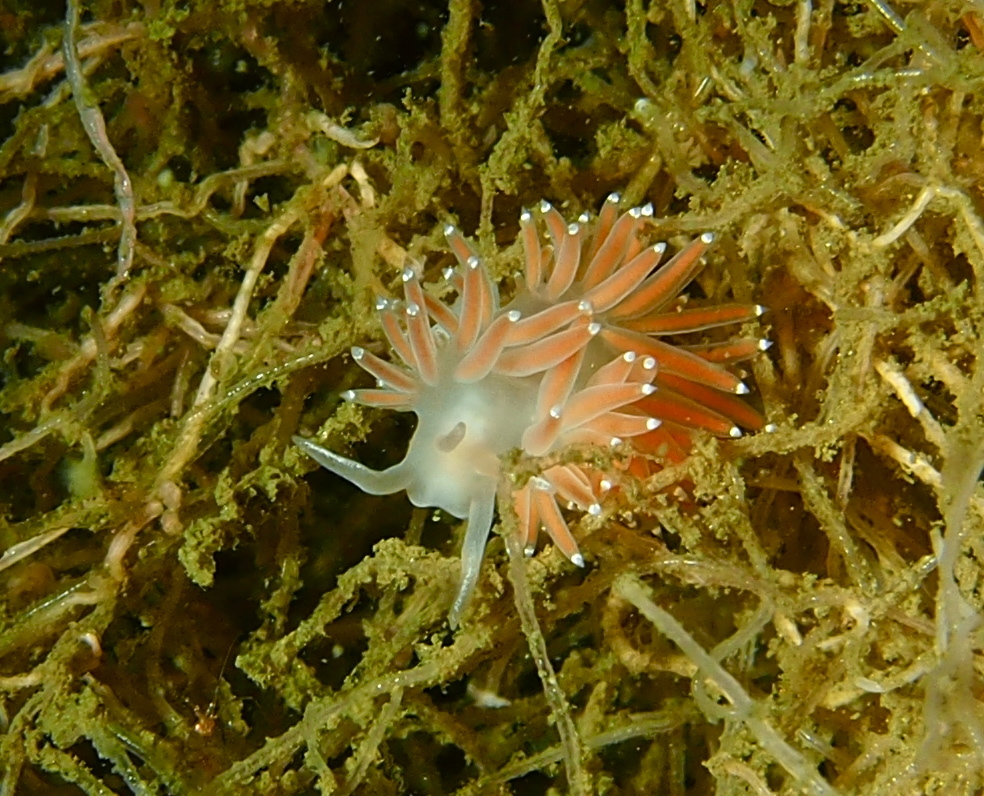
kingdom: Animalia
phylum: Mollusca
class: Gastropoda
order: Nudibranchia
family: Coryphellidae
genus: Coryphella
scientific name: Coryphella verrucosa
